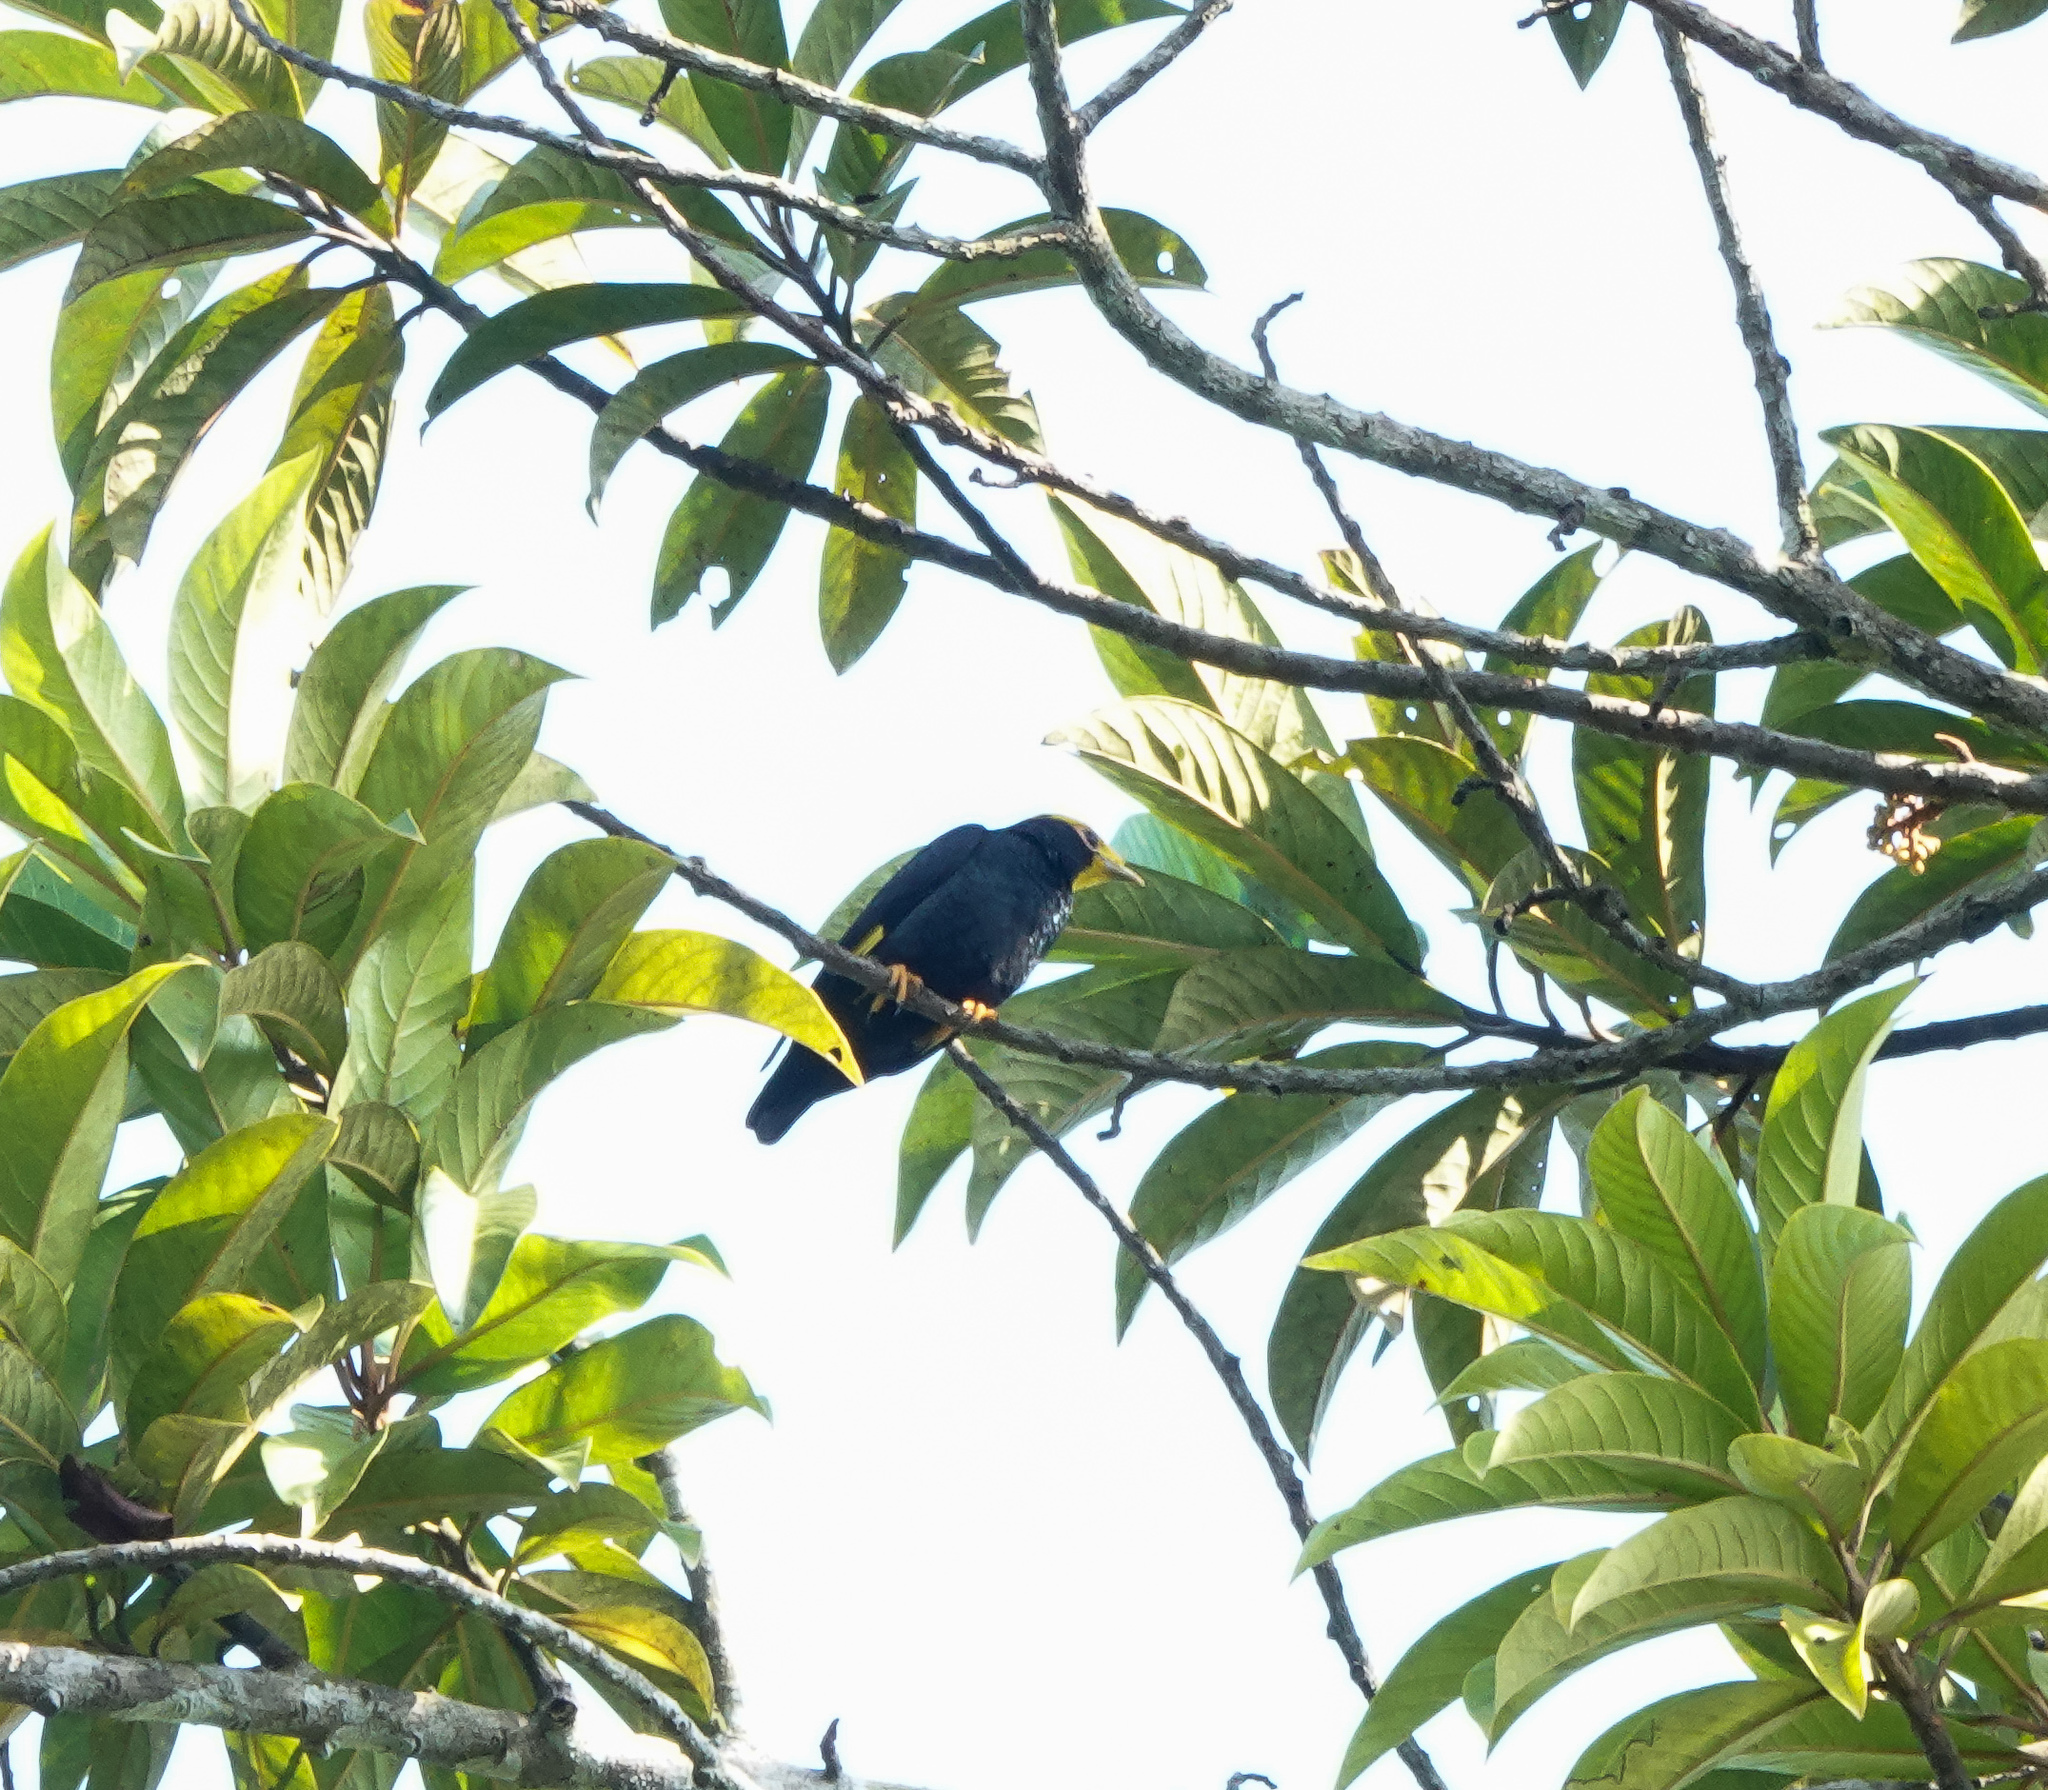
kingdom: Animalia
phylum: Chordata
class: Aves
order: Passeriformes
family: Sturnidae
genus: Ampeliceps
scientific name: Ampeliceps coronatus
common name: Golden-crested myna
